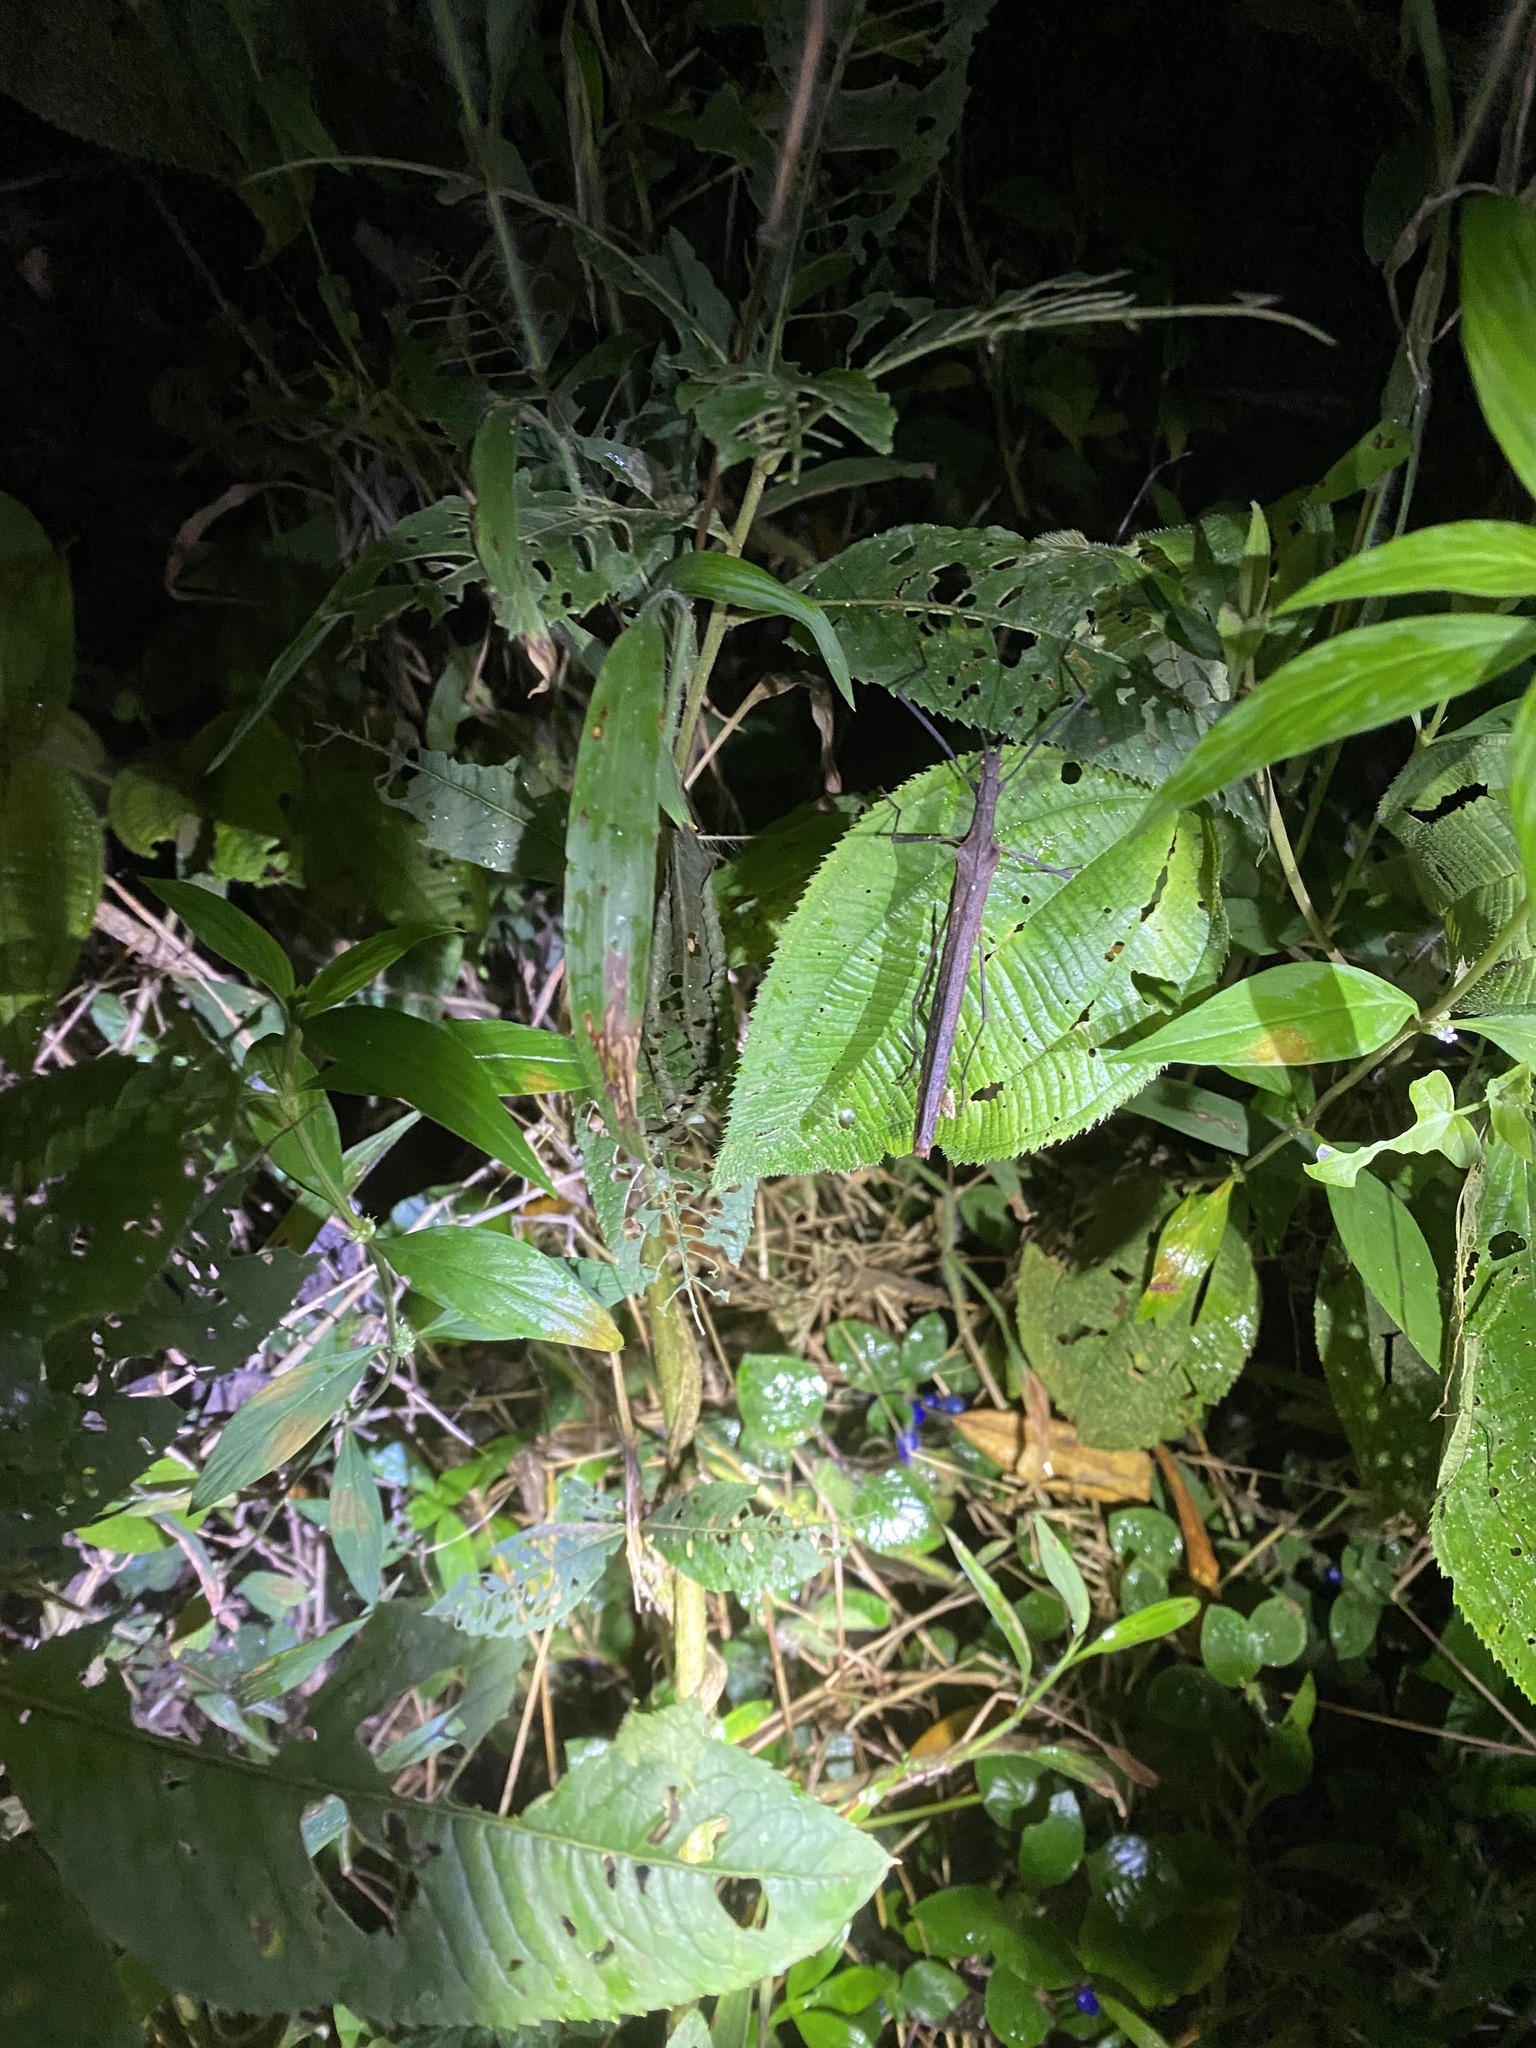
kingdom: Animalia
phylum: Arthropoda
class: Insecta
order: Phasmida
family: Pseudophasmatidae
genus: Pseudophasma
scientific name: Pseudophasma unicolor
